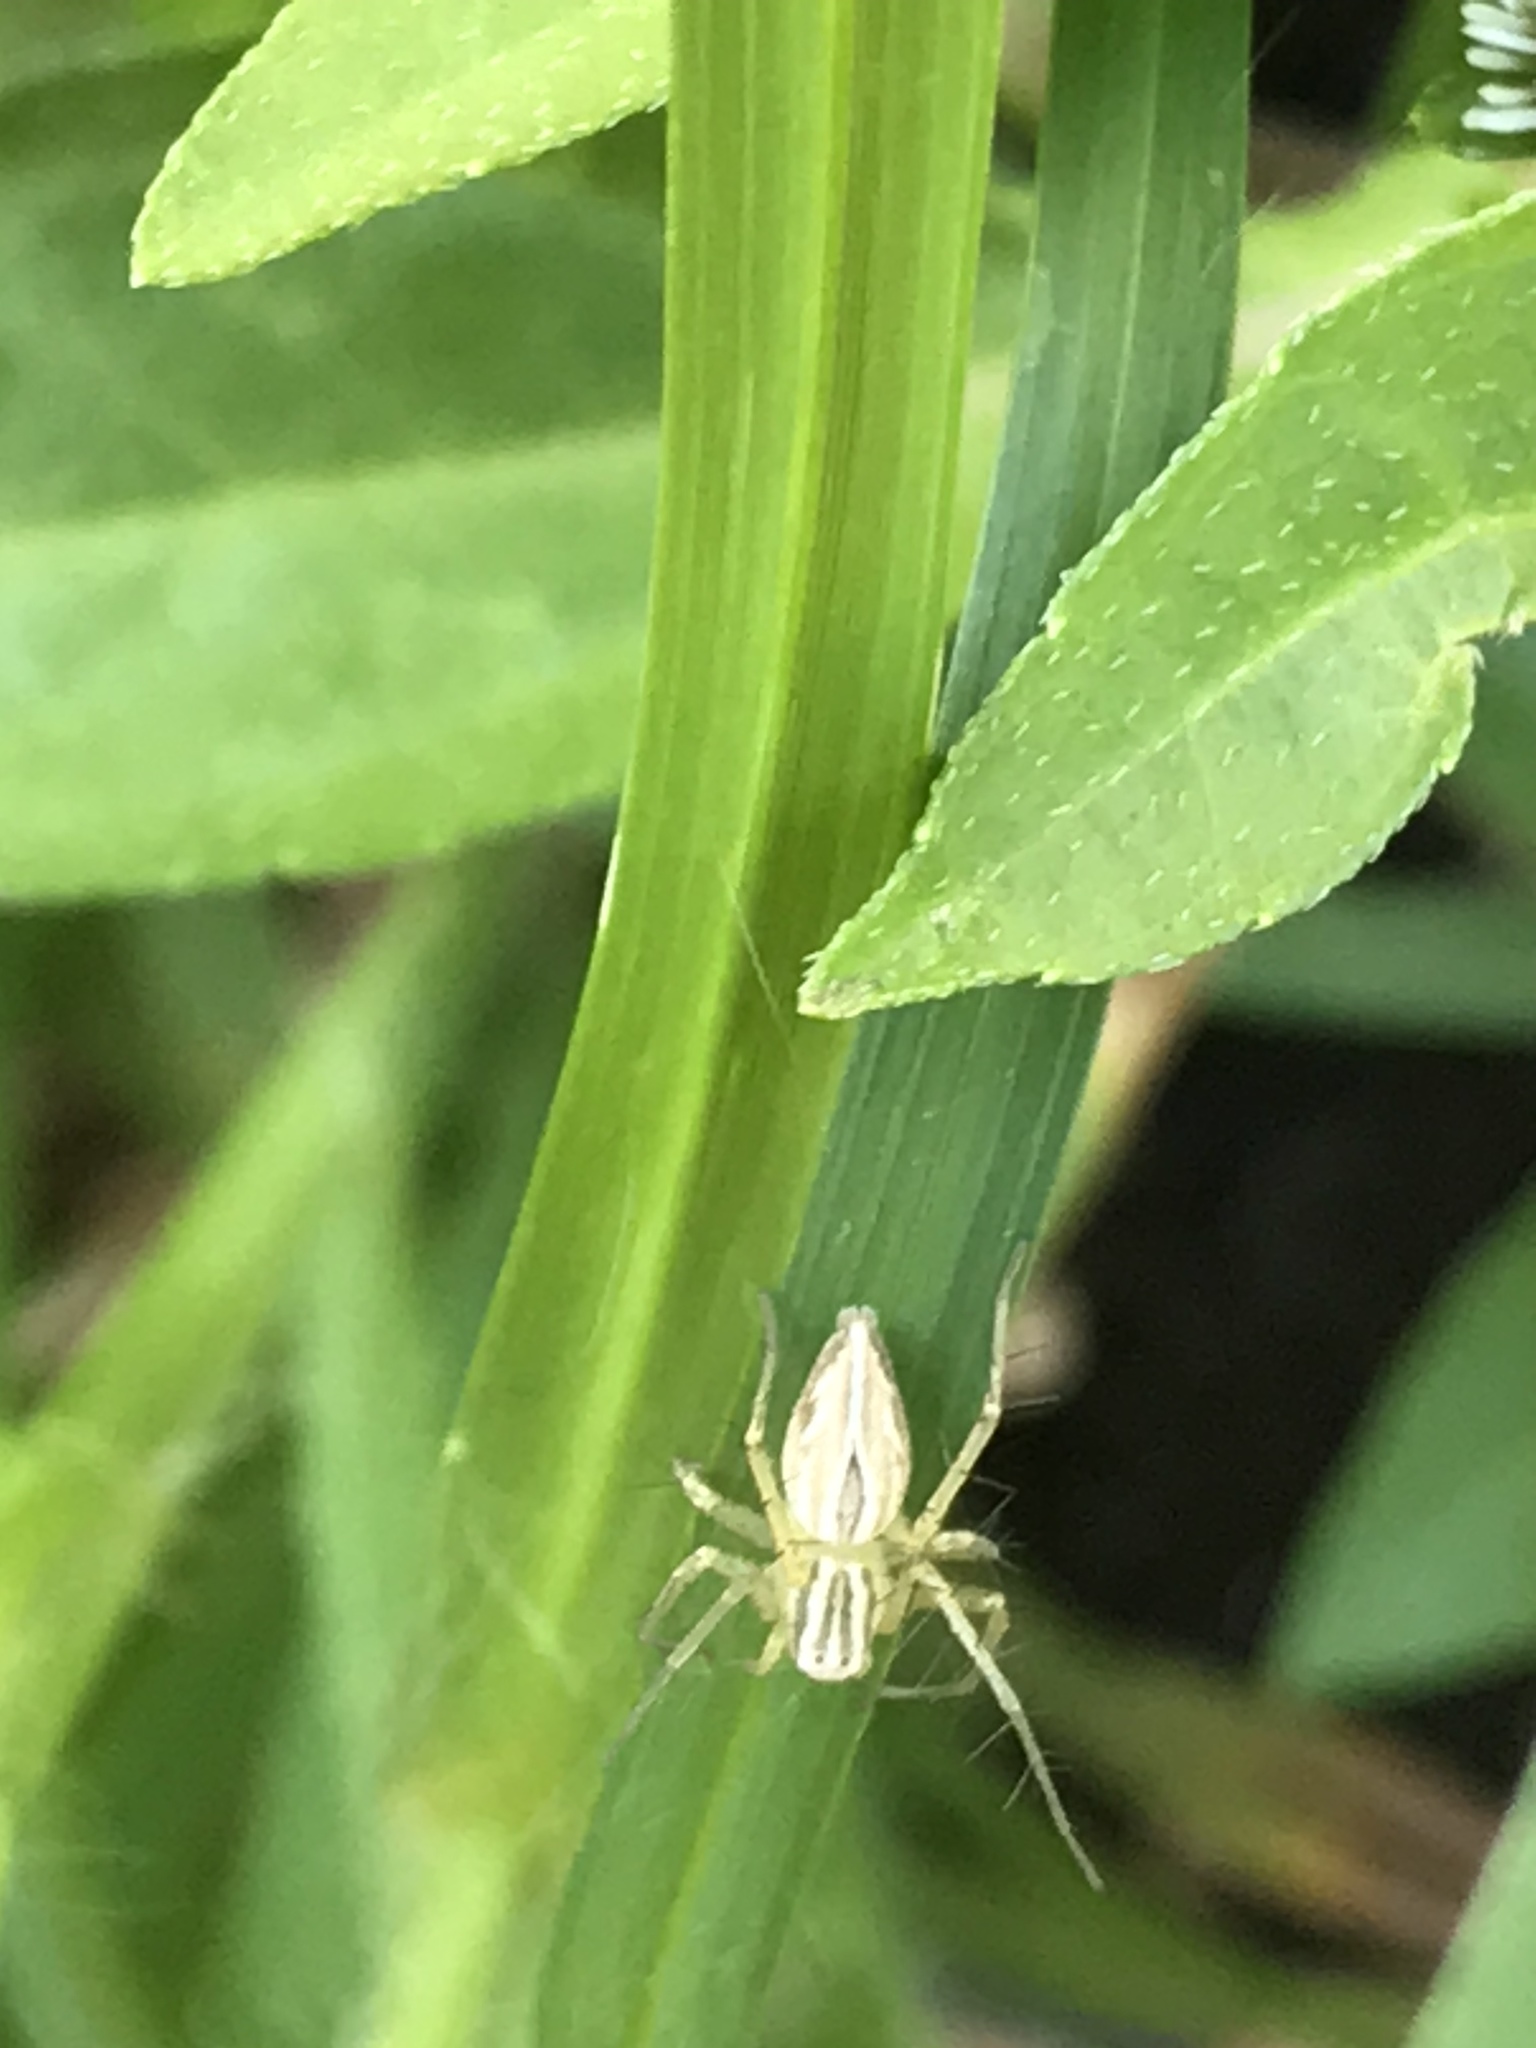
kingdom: Animalia
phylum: Arthropoda
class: Arachnida
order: Araneae
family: Oxyopidae
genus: Oxyopes
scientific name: Oxyopes salticus
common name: Lynx spiders
